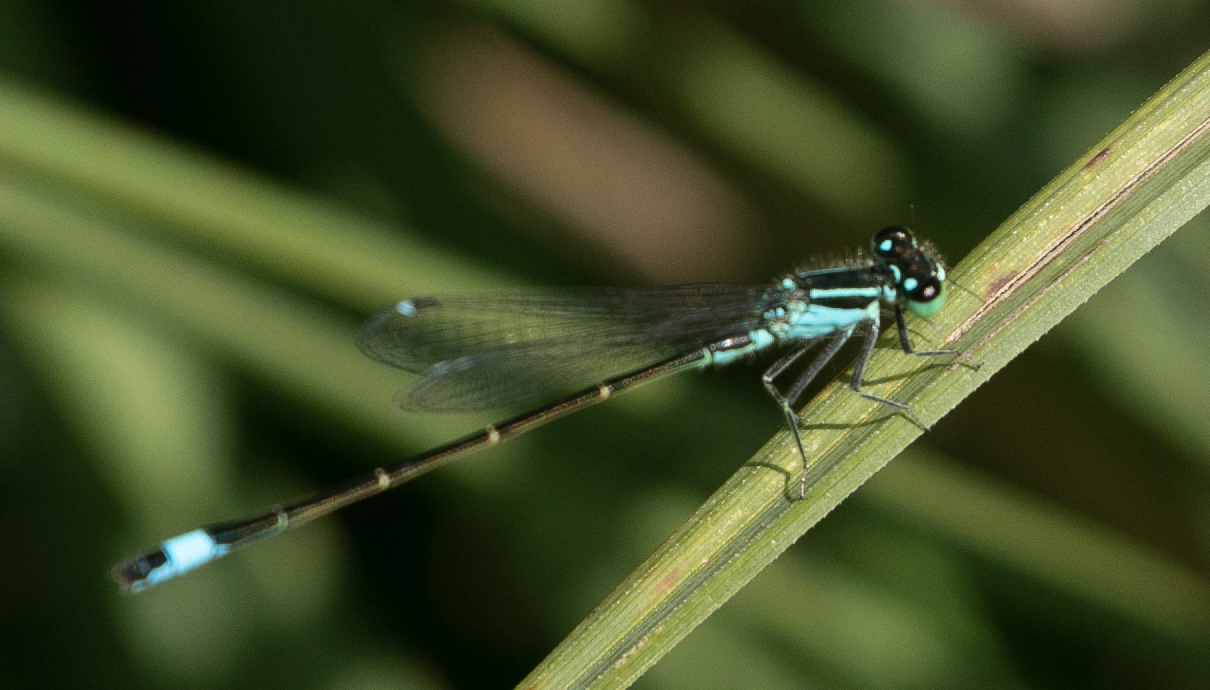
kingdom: Animalia
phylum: Arthropoda
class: Insecta
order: Odonata
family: Coenagrionidae
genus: Ischnura
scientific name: Ischnura elegans
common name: Blue-tailed damselfly
